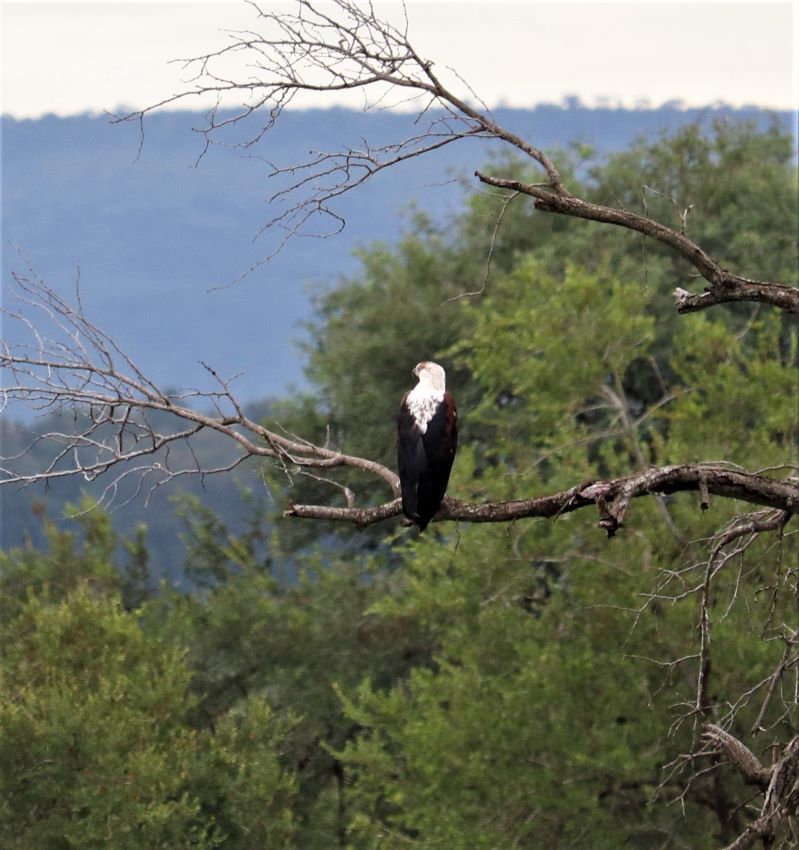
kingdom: Animalia
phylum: Chordata
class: Aves
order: Accipitriformes
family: Accipitridae
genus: Haliaeetus
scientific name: Haliaeetus vocifer
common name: African fish eagle
